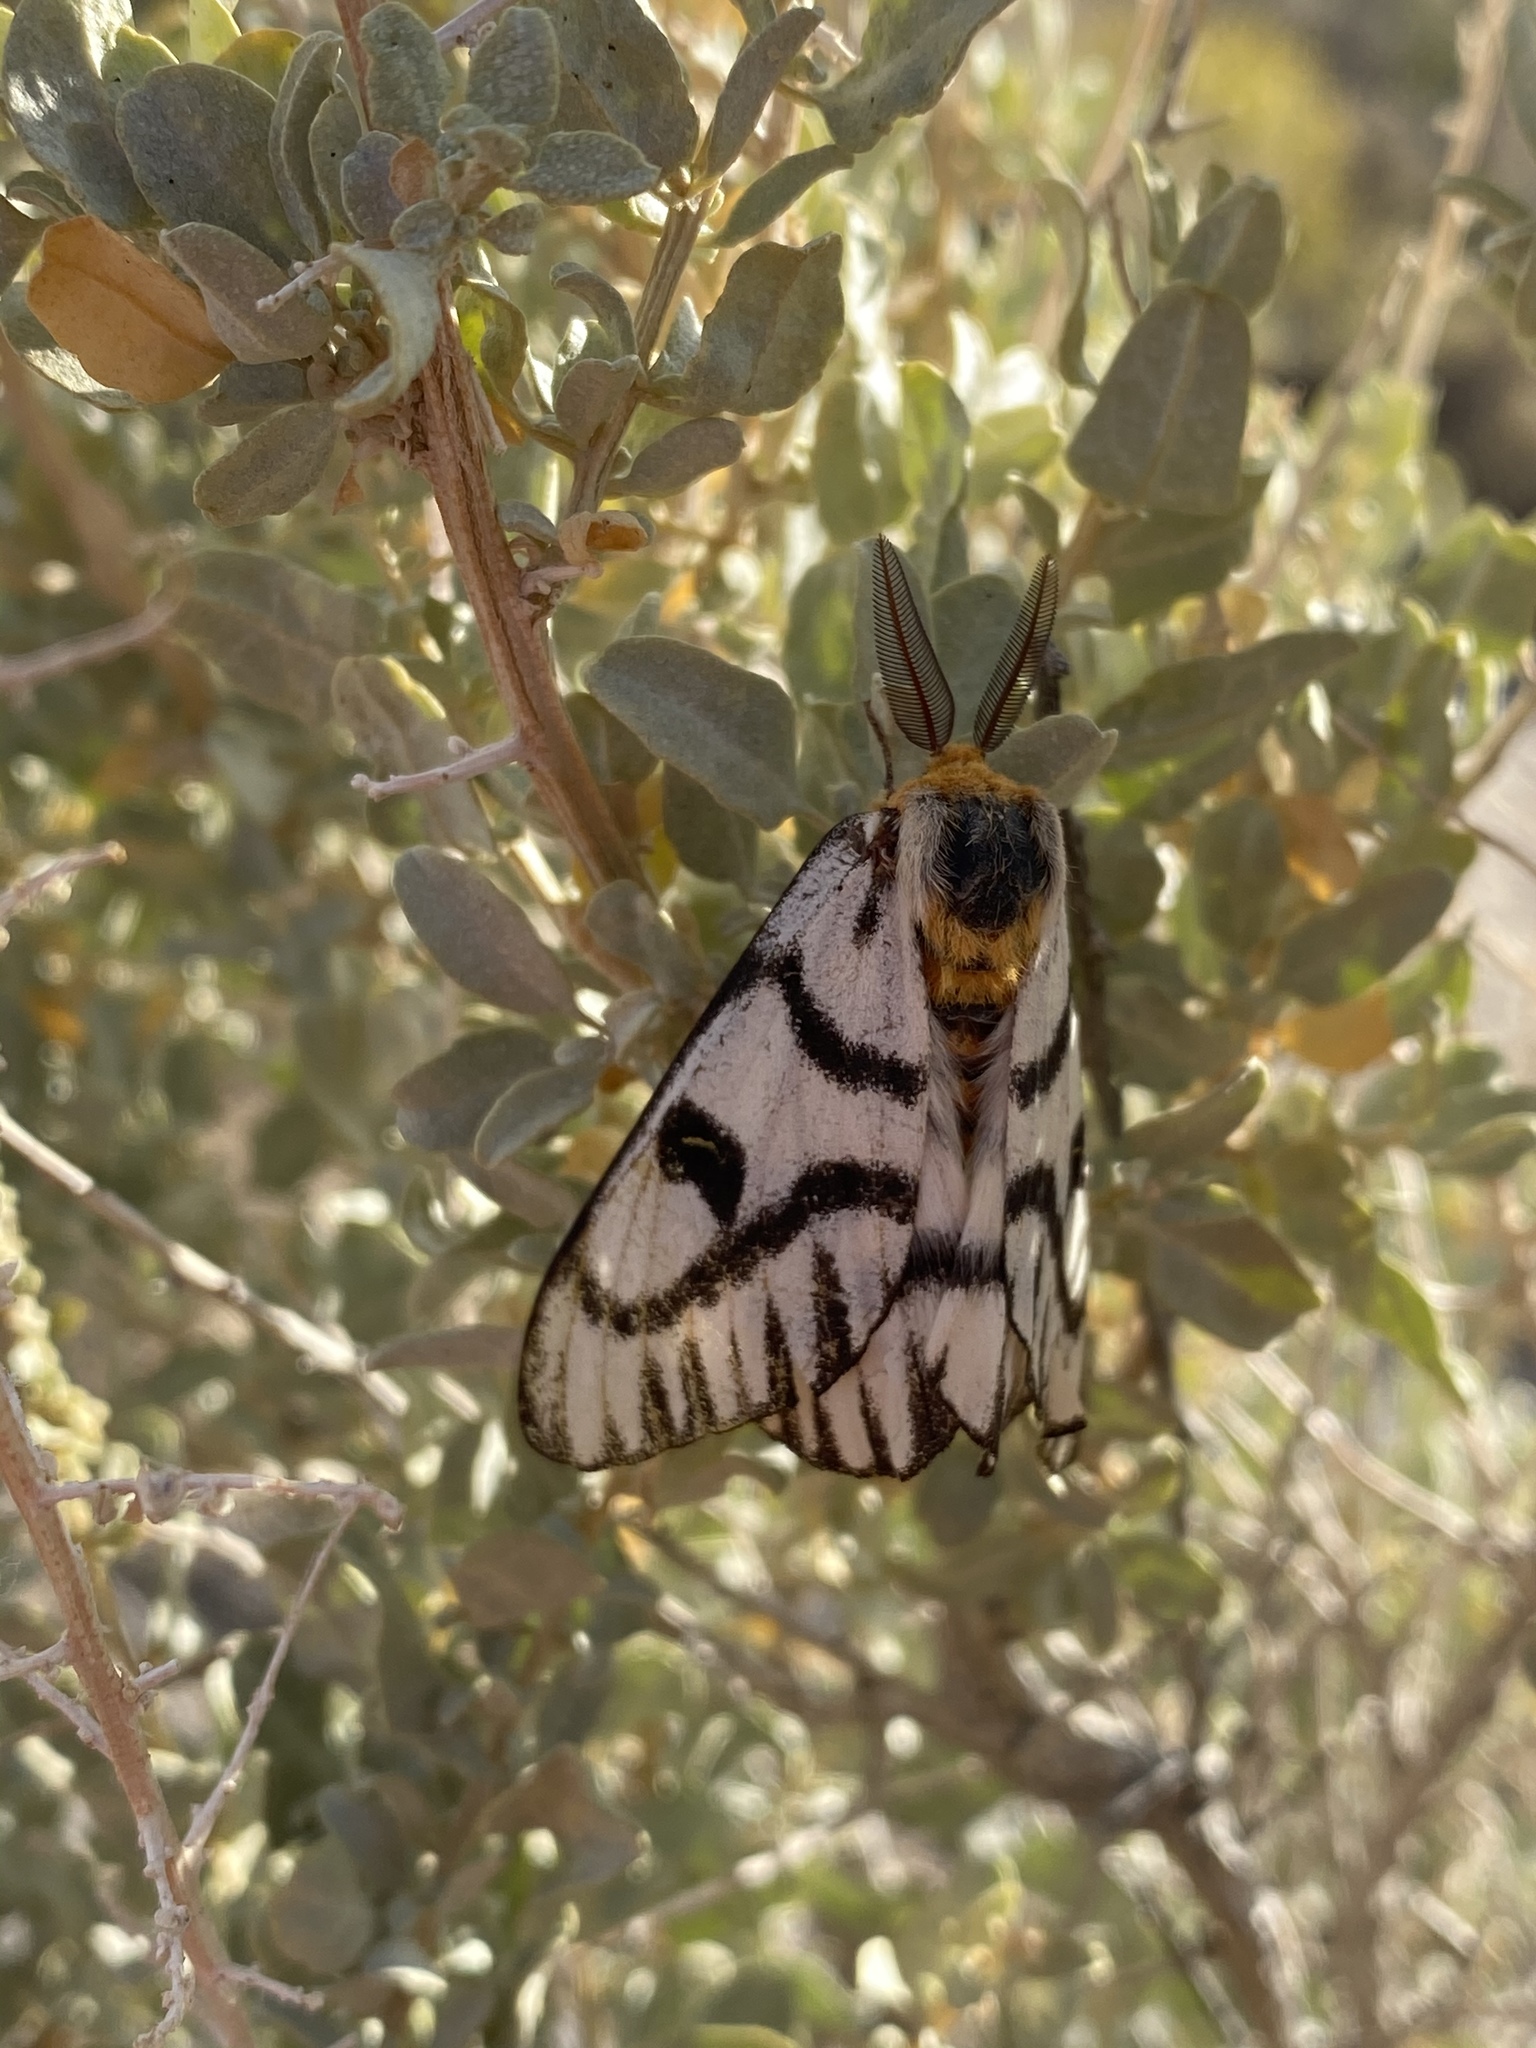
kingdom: Animalia
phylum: Arthropoda
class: Insecta
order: Lepidoptera
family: Saturniidae
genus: Hemileuca
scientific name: Hemileuca hera
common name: Hera sheepmoth
